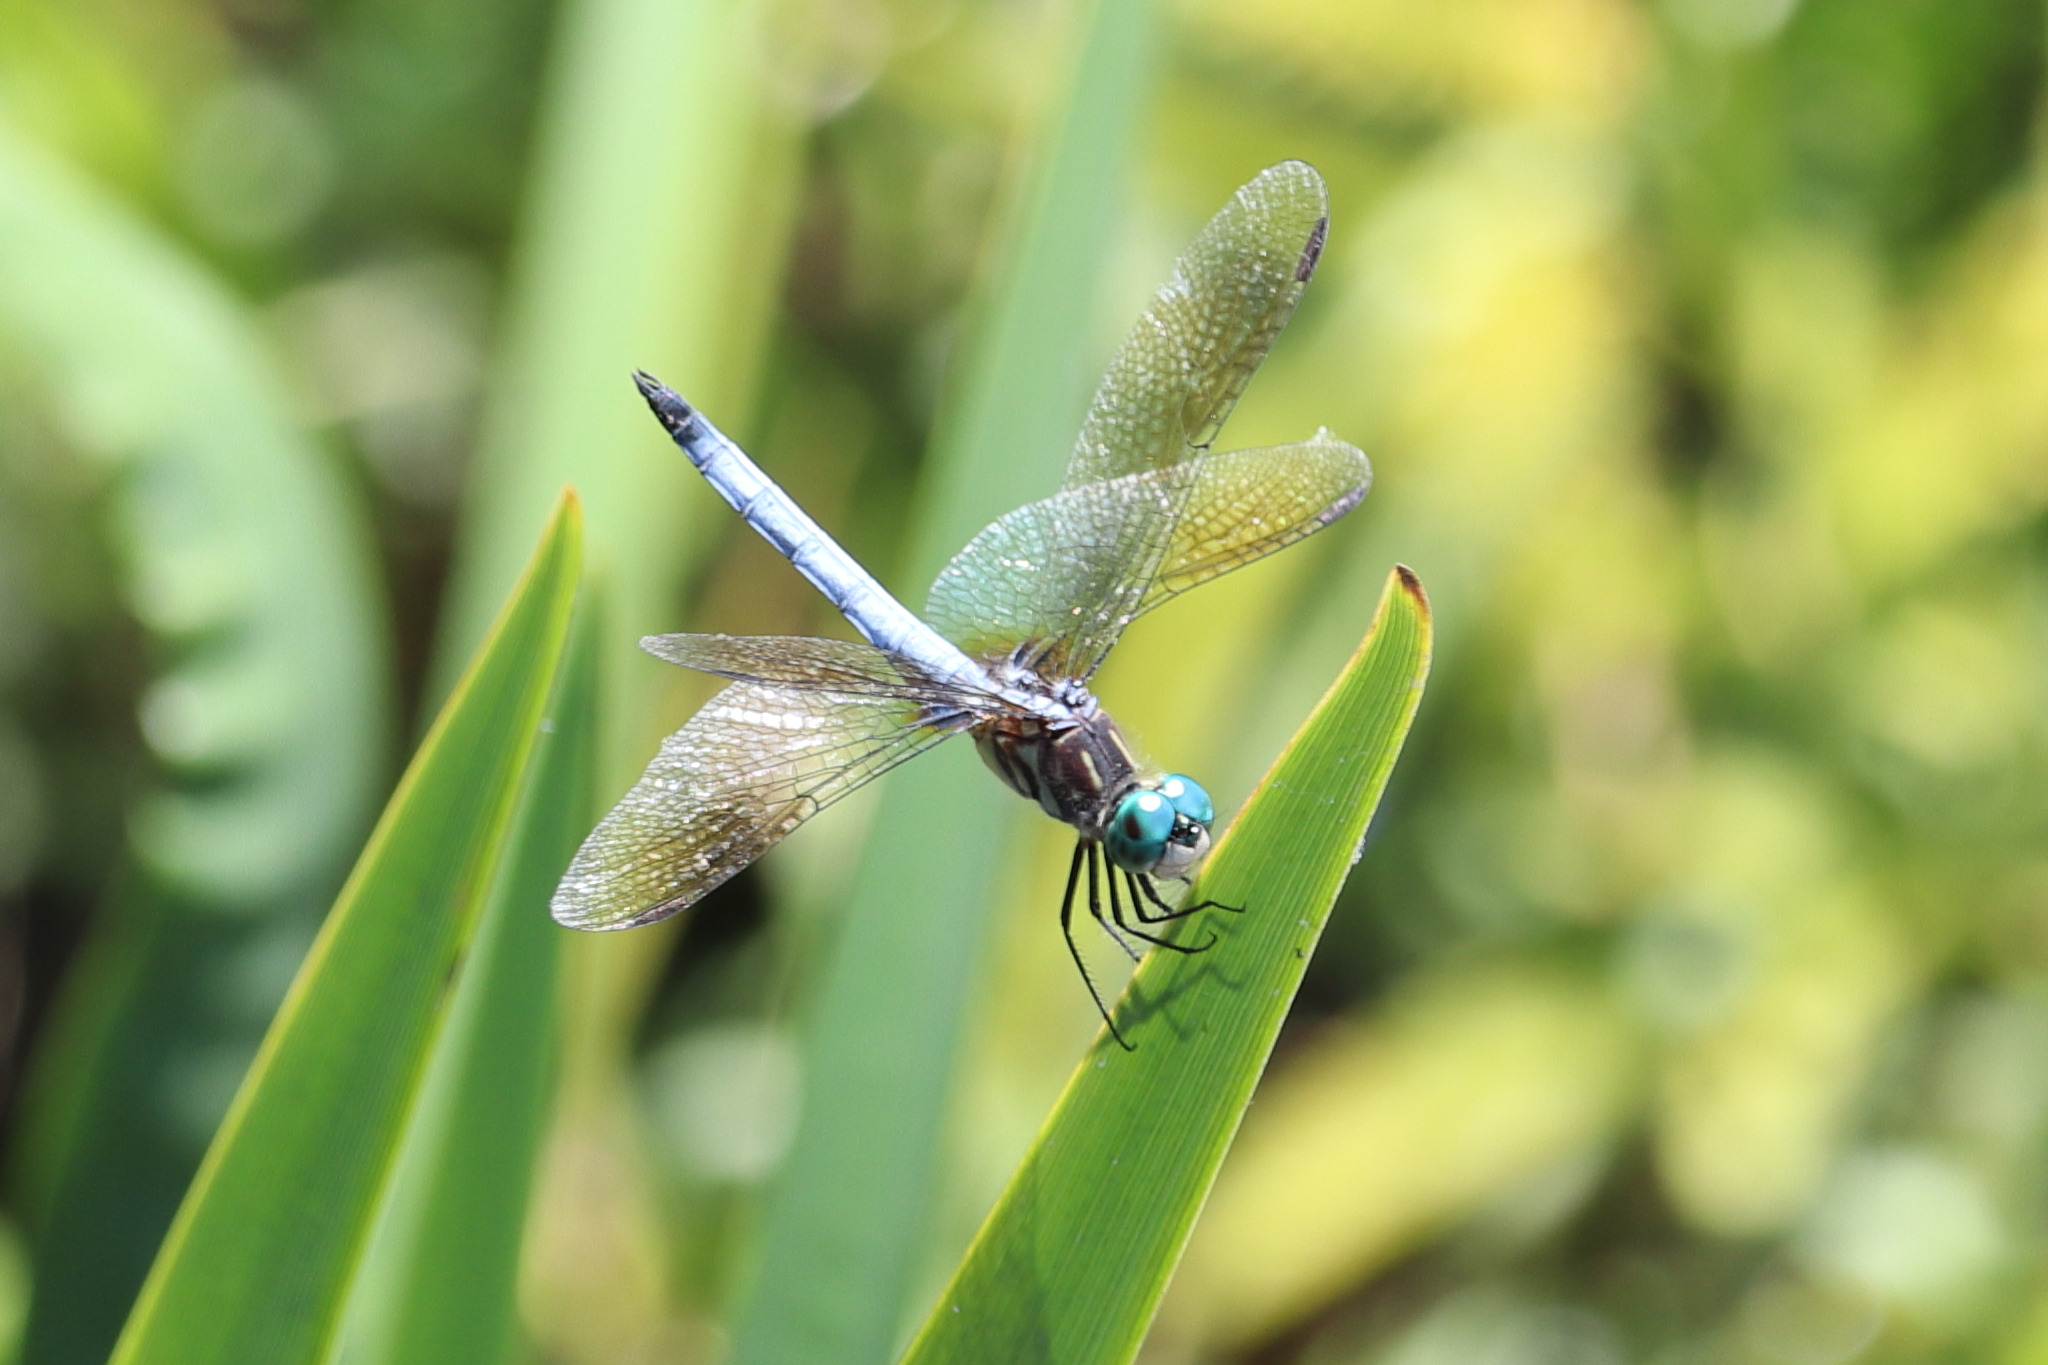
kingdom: Animalia
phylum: Arthropoda
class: Insecta
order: Odonata
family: Libellulidae
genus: Pachydiplax
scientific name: Pachydiplax longipennis
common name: Blue dasher
